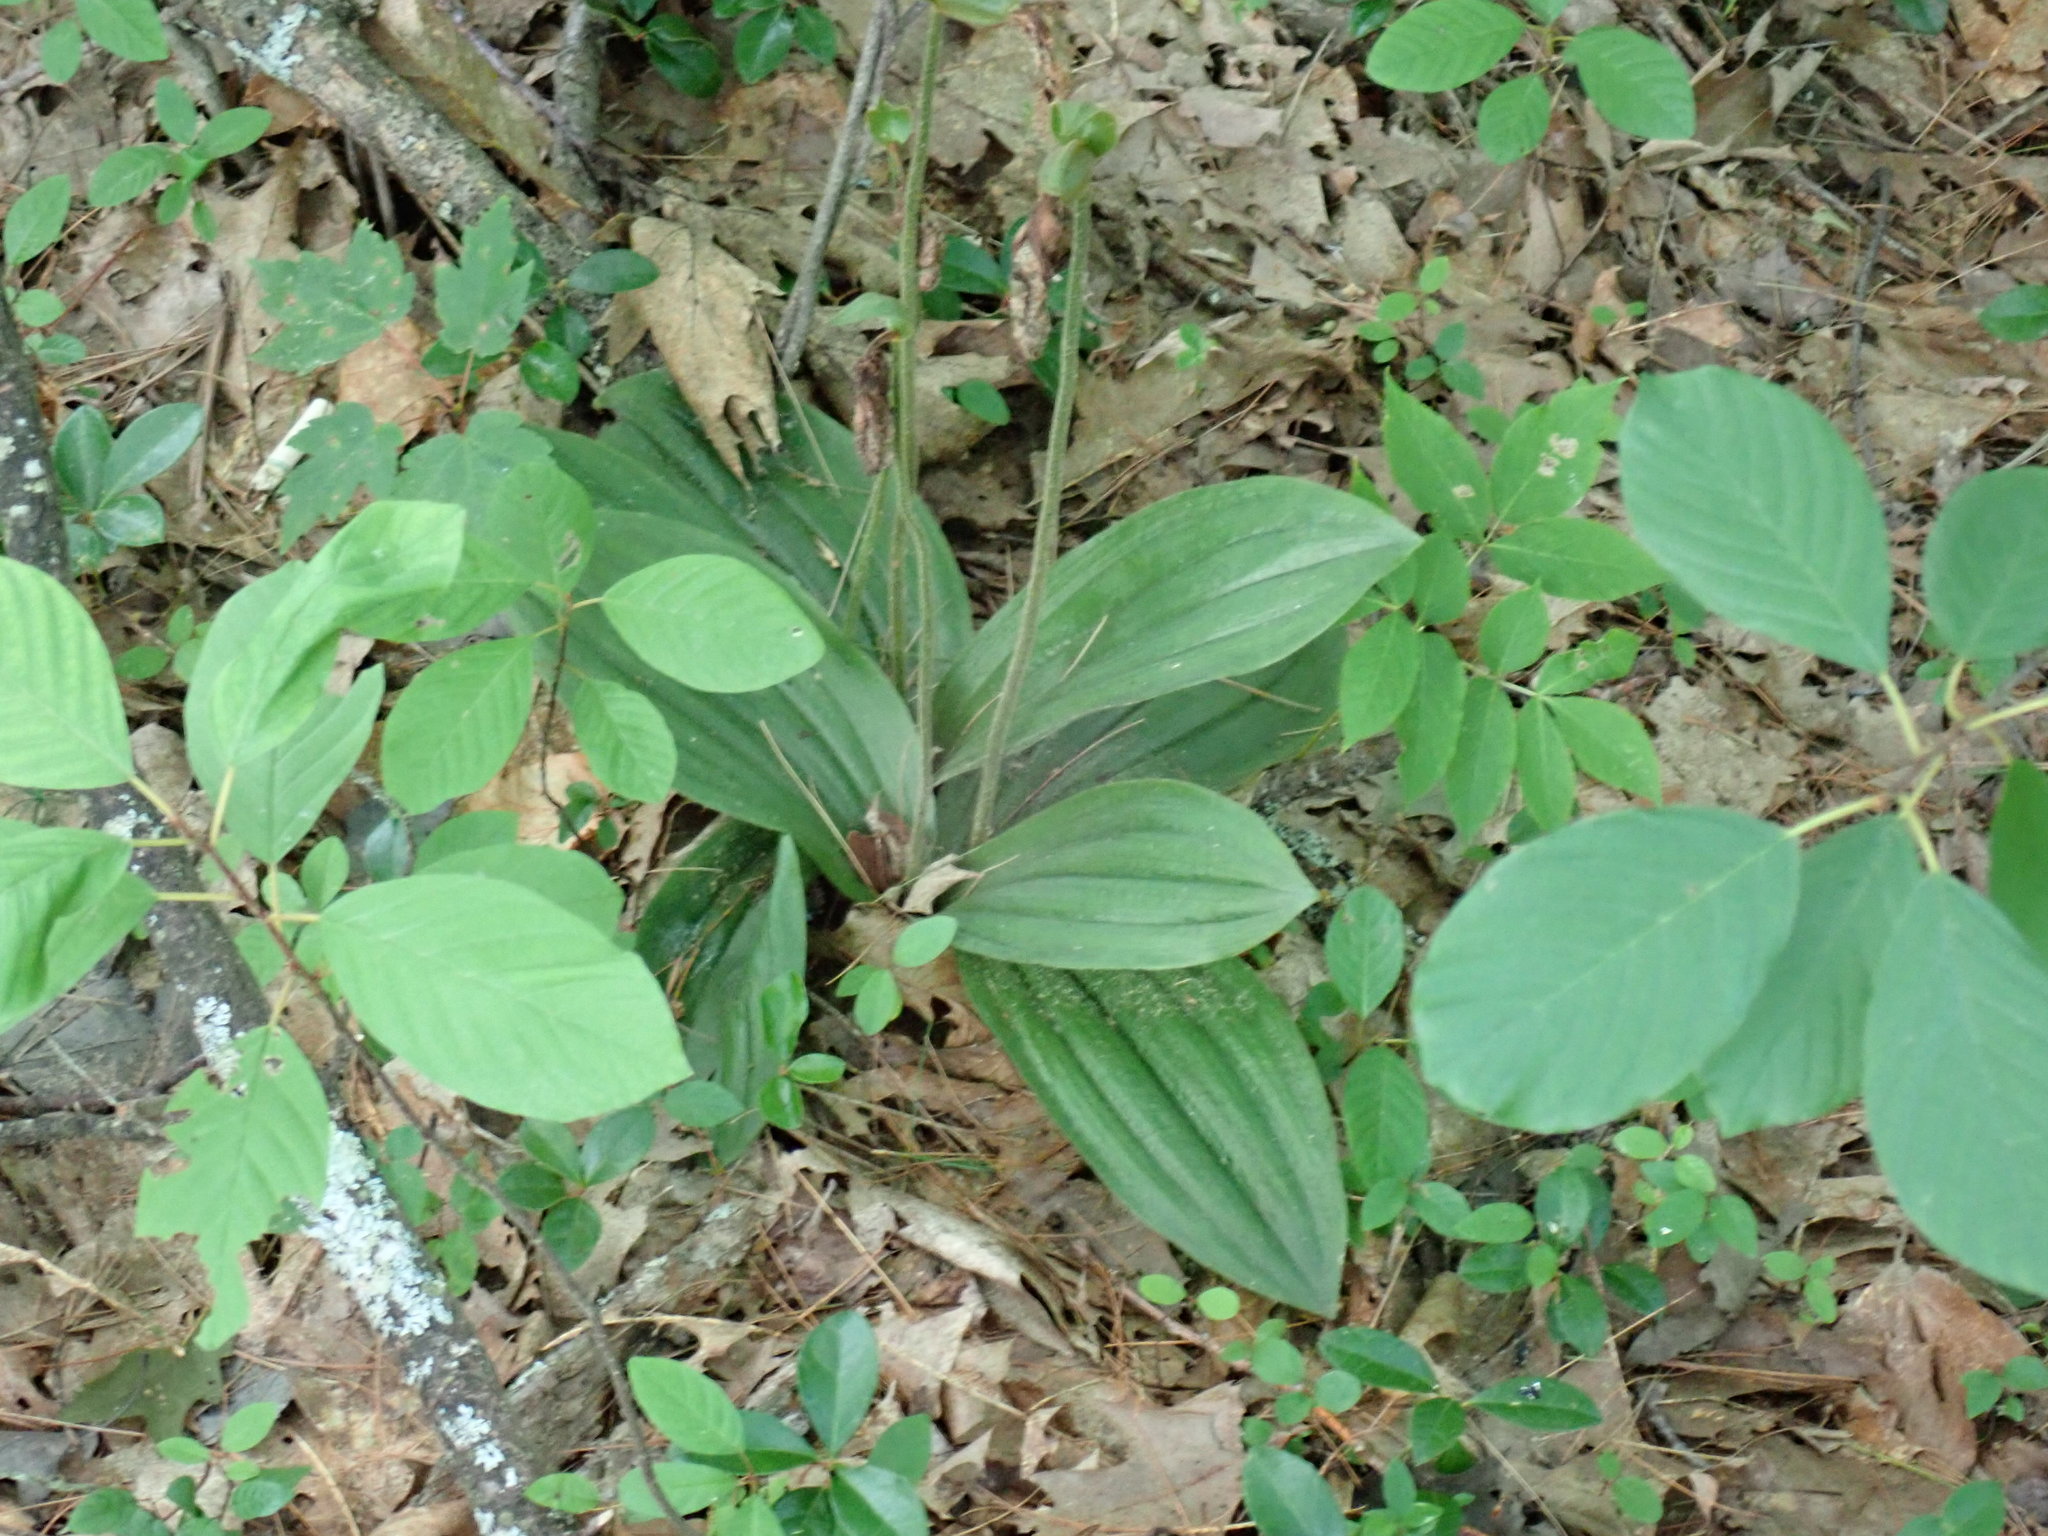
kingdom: Plantae
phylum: Tracheophyta
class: Liliopsida
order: Asparagales
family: Orchidaceae
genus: Cypripedium
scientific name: Cypripedium acaule
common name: Pink lady's-slipper
